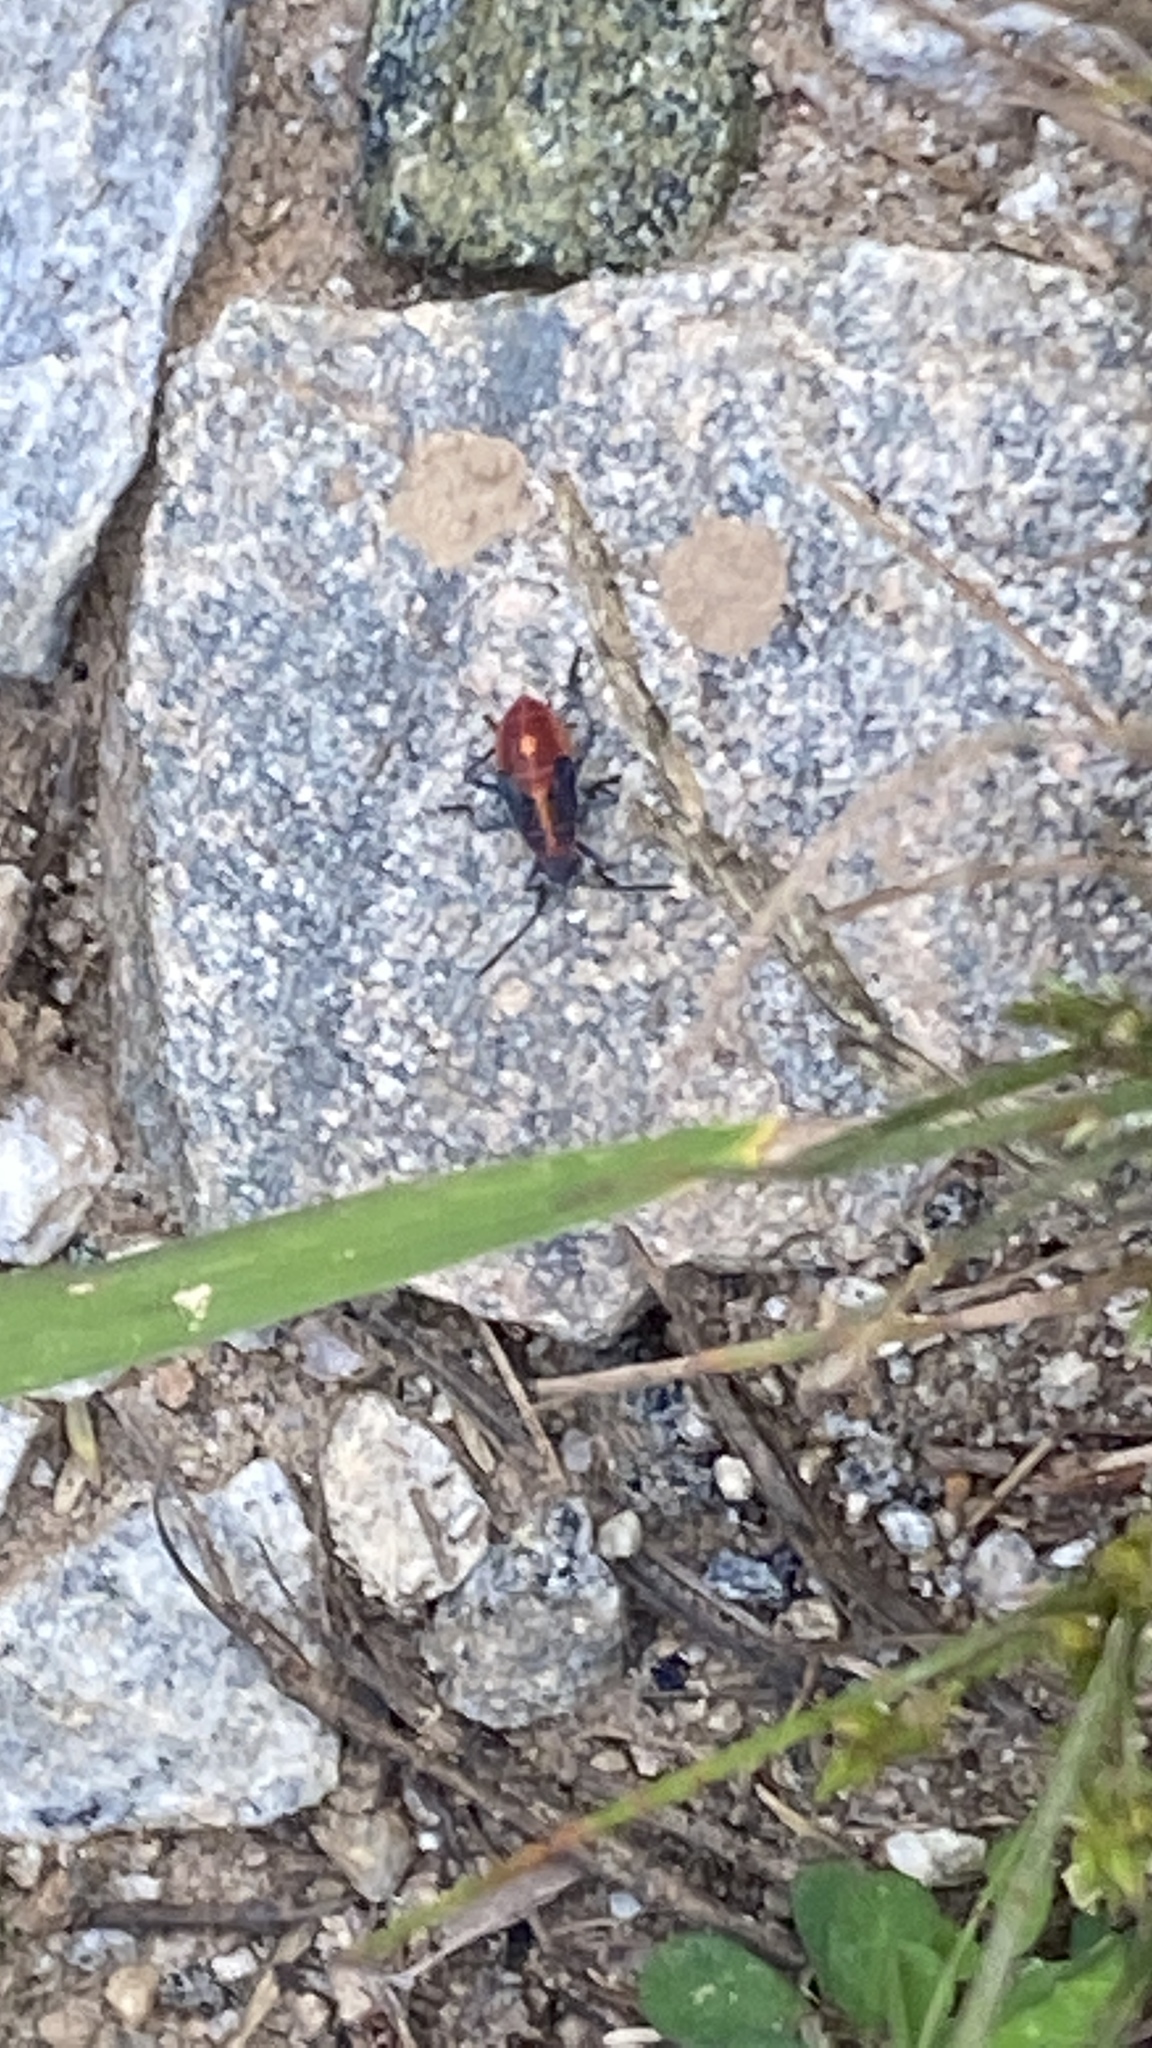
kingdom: Animalia
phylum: Arthropoda
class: Insecta
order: Hemiptera
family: Rhopalidae
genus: Boisea
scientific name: Boisea trivittata
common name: Boxelder bug
